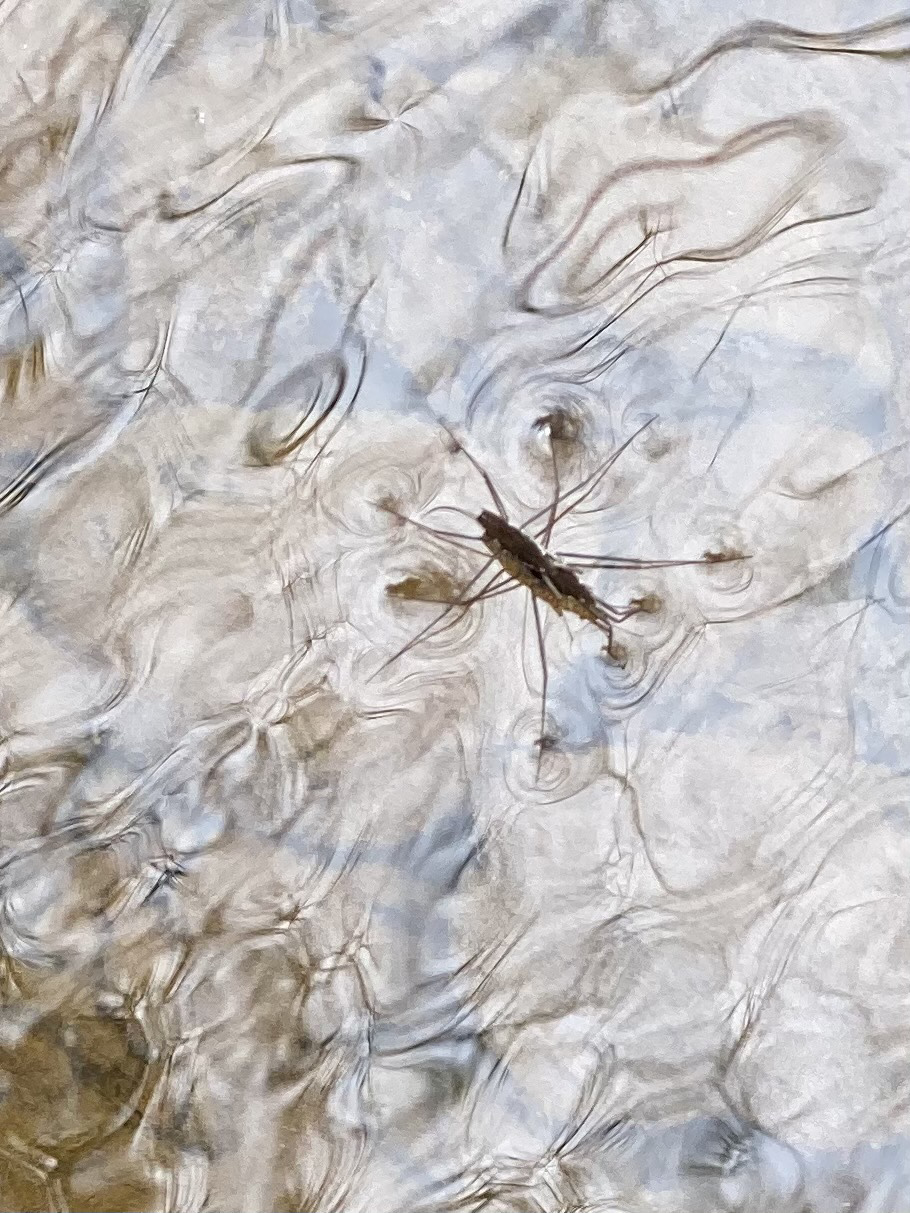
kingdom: Animalia
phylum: Arthropoda
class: Insecta
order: Hemiptera
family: Gerridae
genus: Aquarius
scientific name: Aquarius remigis
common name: Common water strider
